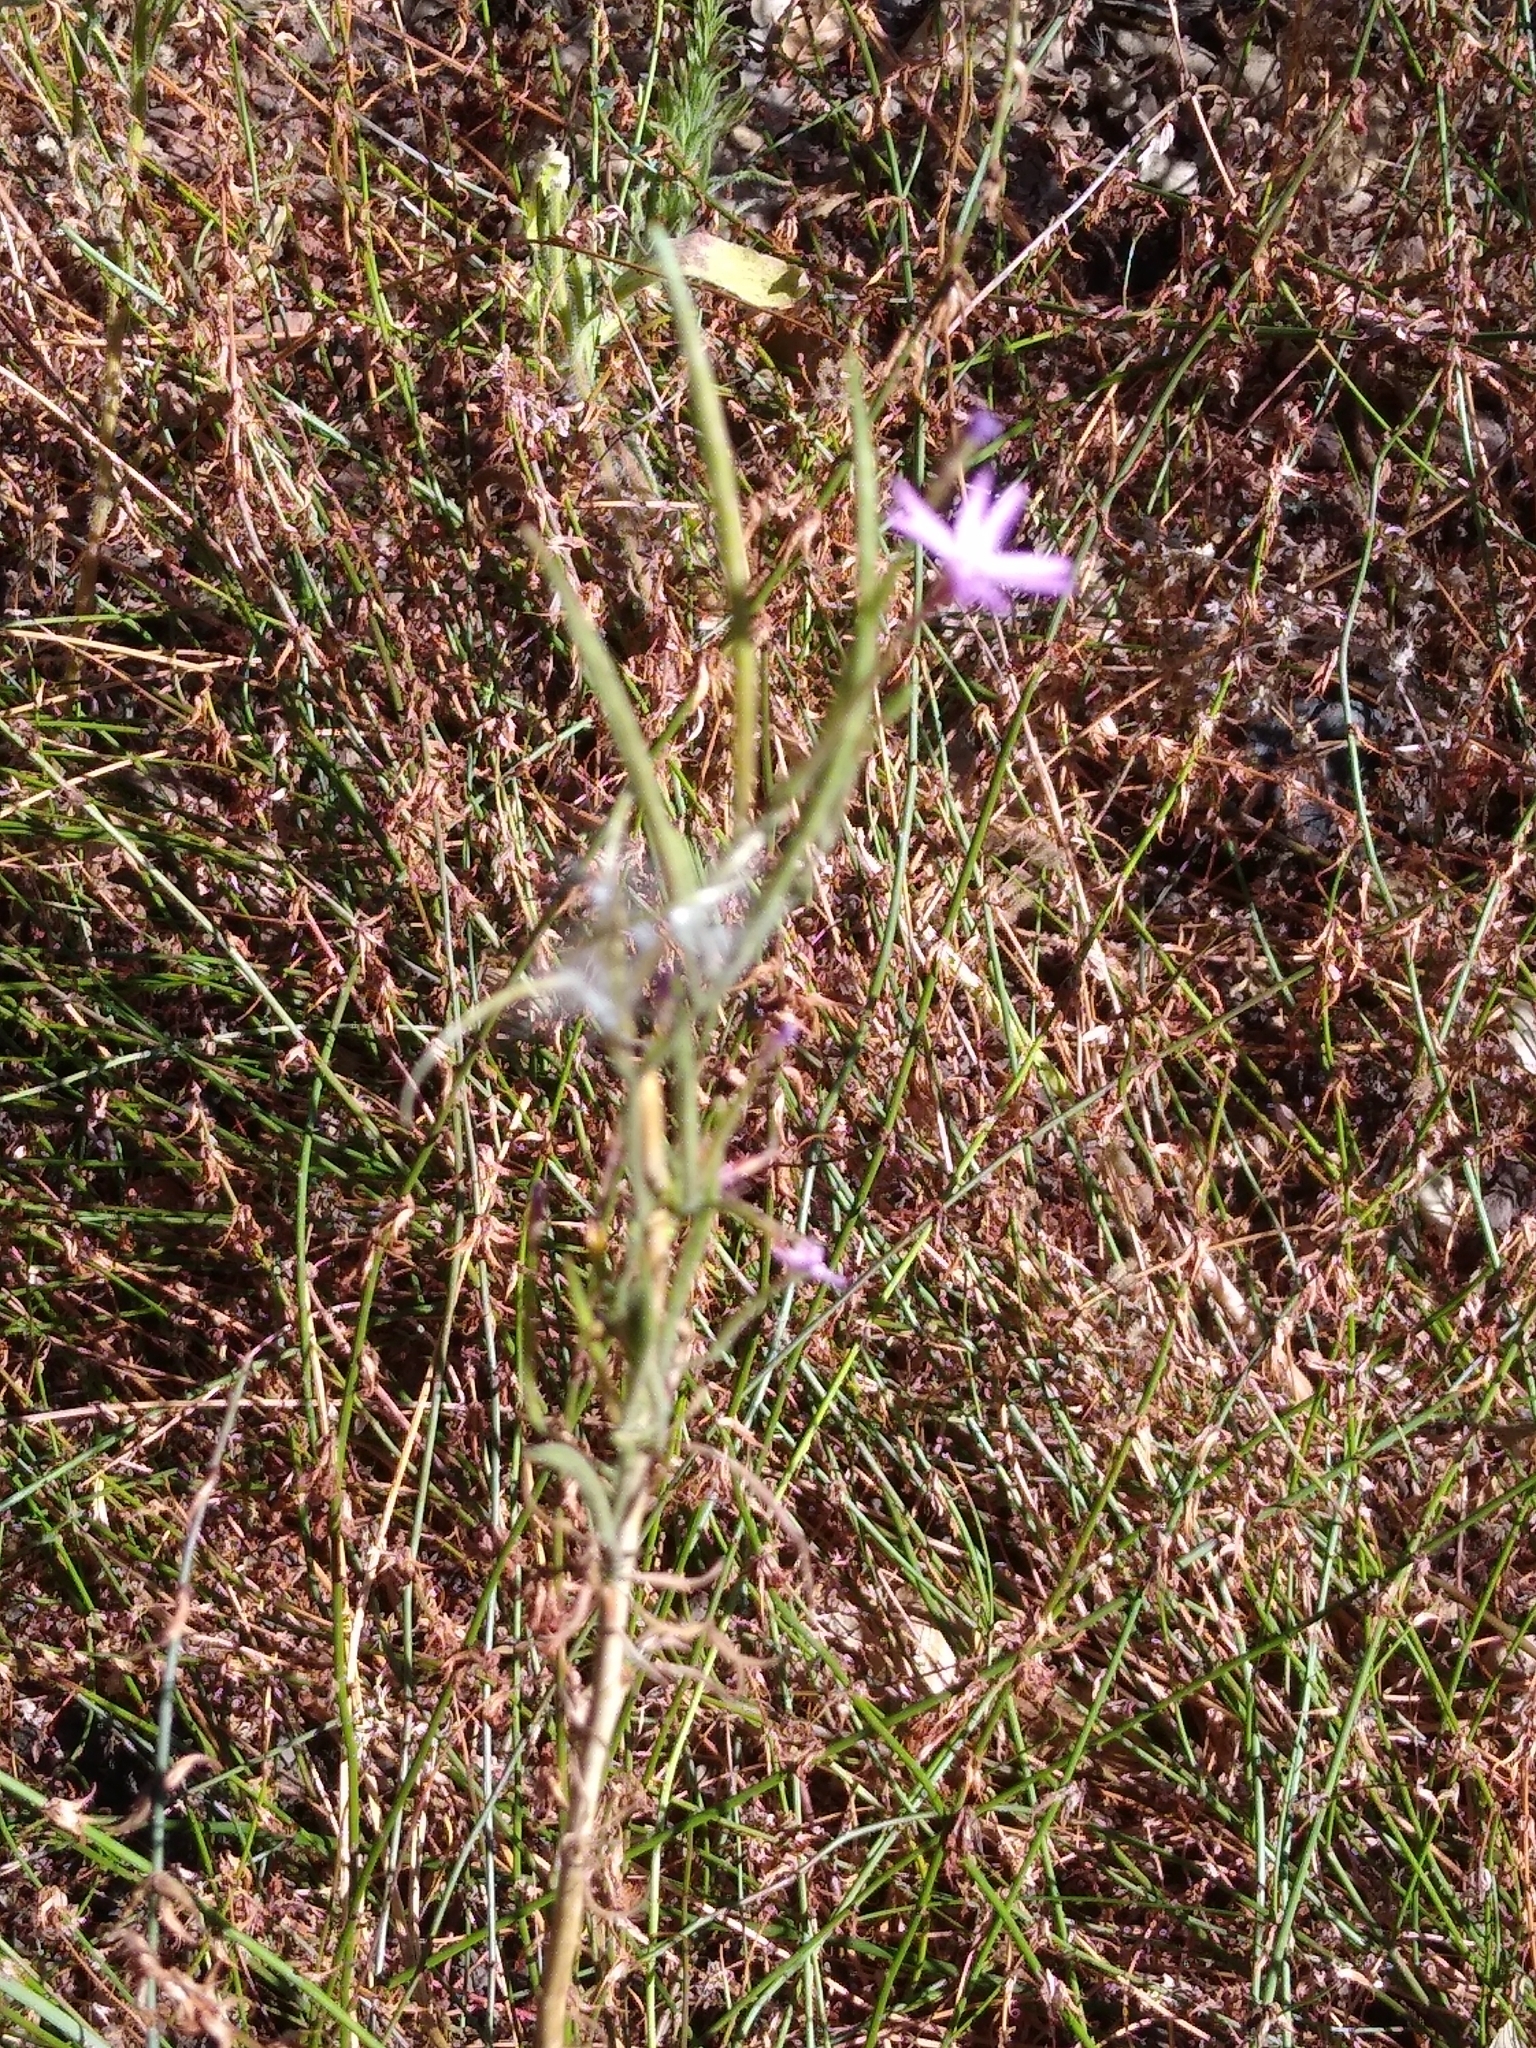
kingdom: Plantae
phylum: Tracheophyta
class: Magnoliopsida
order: Myrtales
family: Onagraceae
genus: Epilobium
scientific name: Epilobium brachycarpum
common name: Annual willowherb
